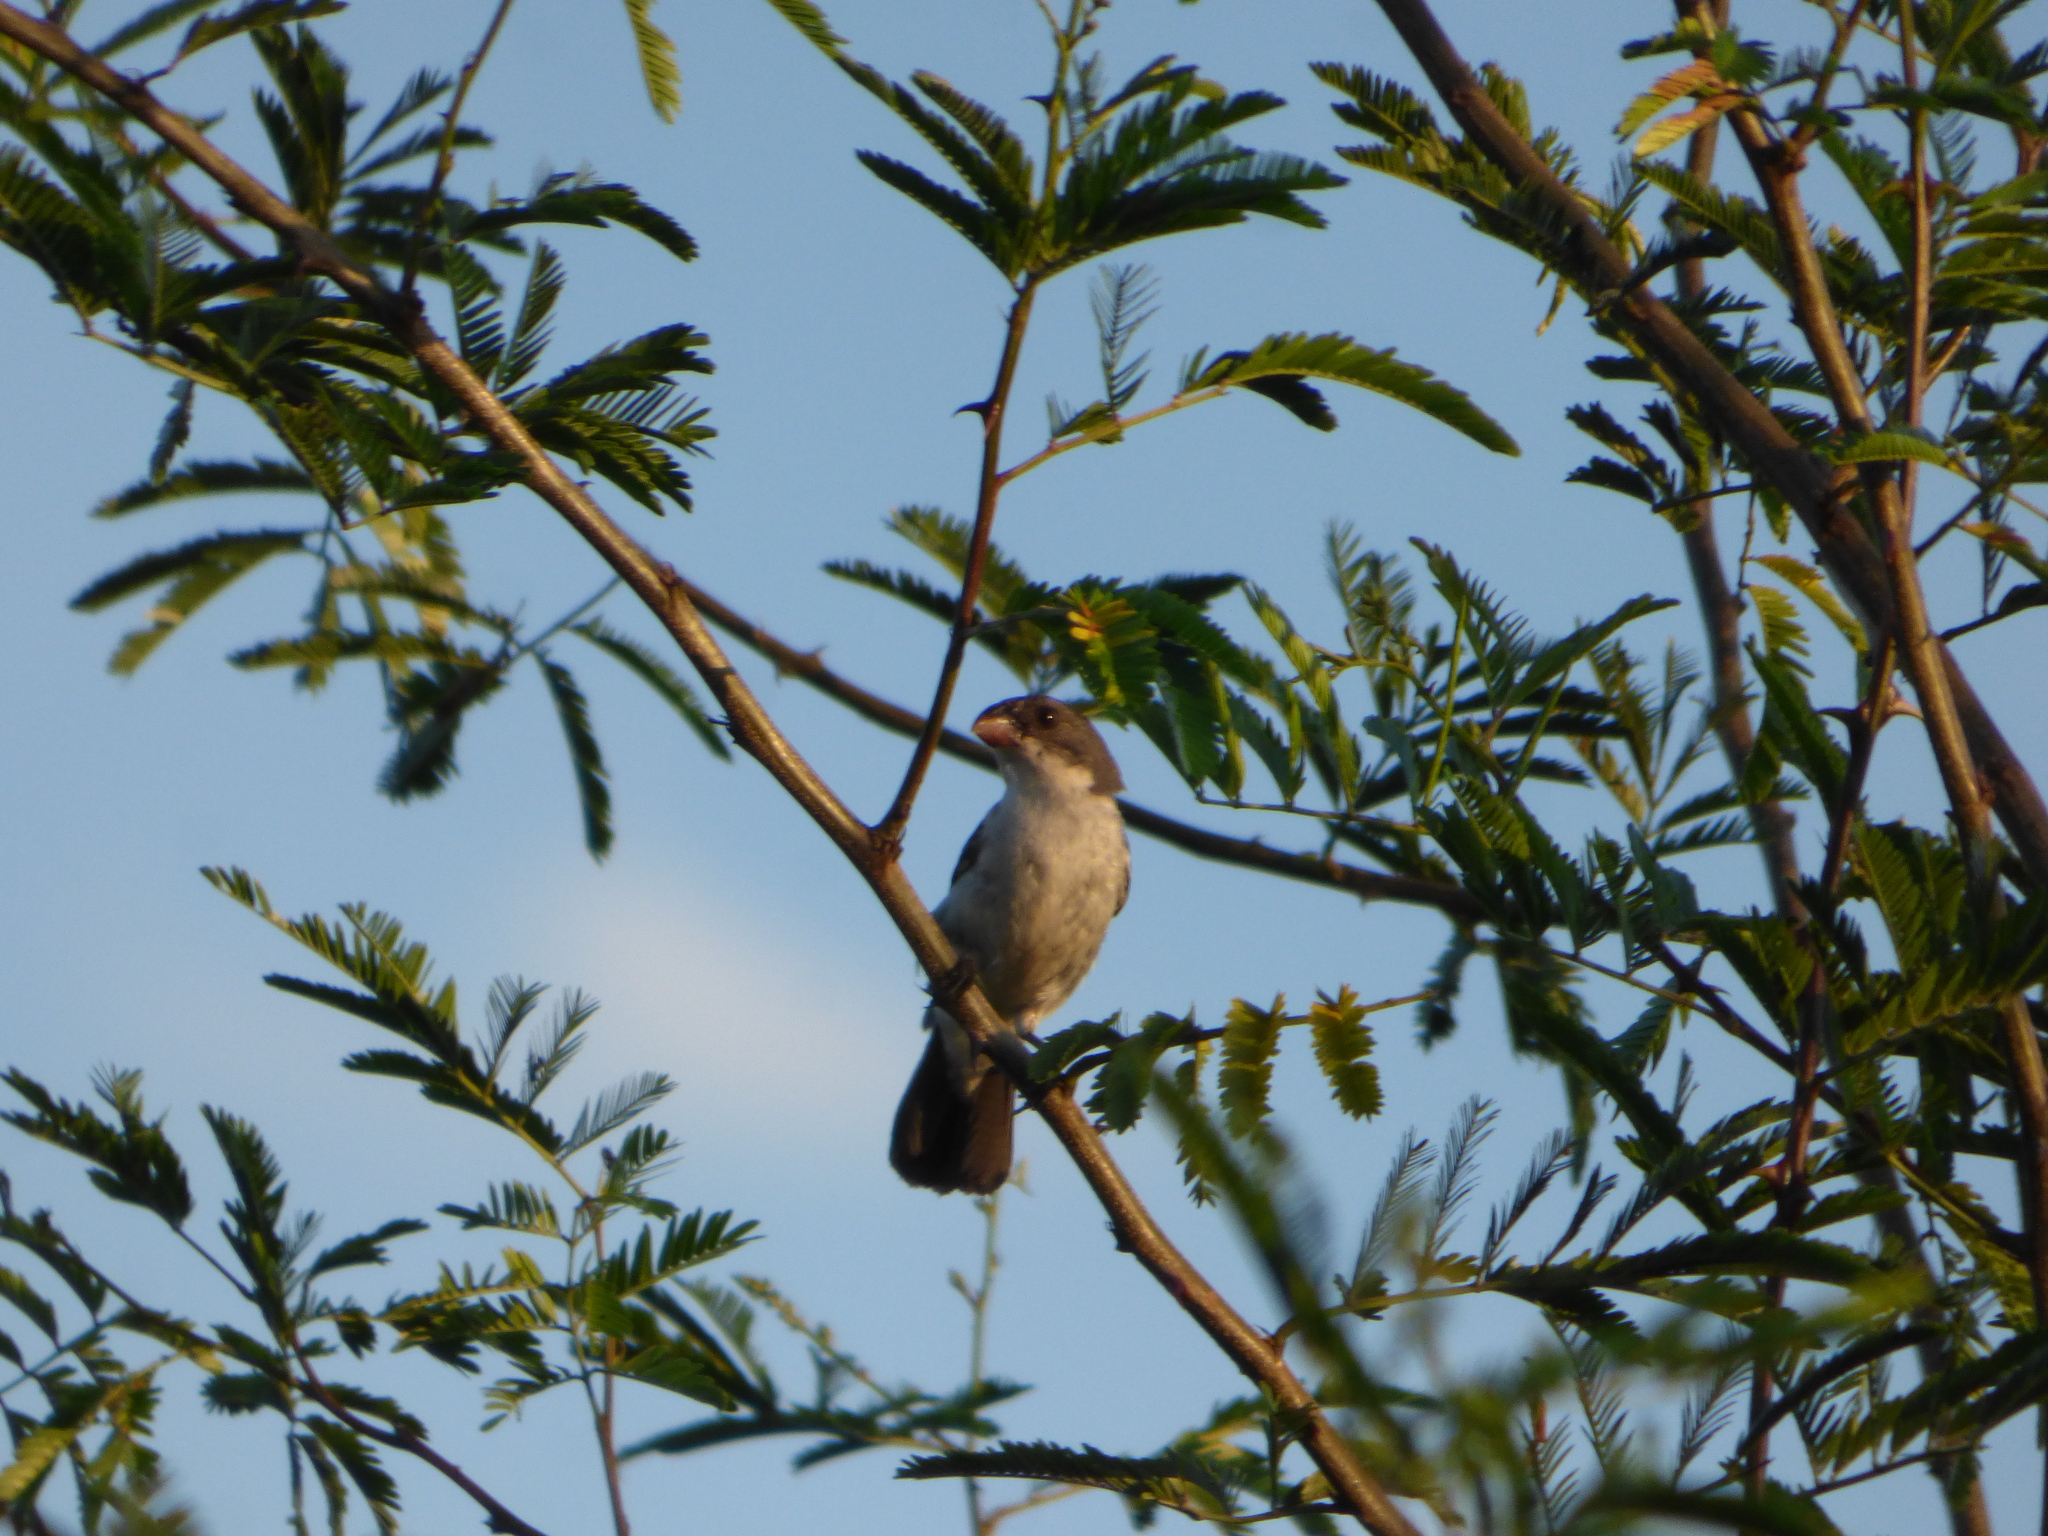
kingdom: Animalia
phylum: Chordata
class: Aves
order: Passeriformes
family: Thraupidae
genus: Sporophila
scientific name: Sporophila leucoptera
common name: White-bellied seedeater
